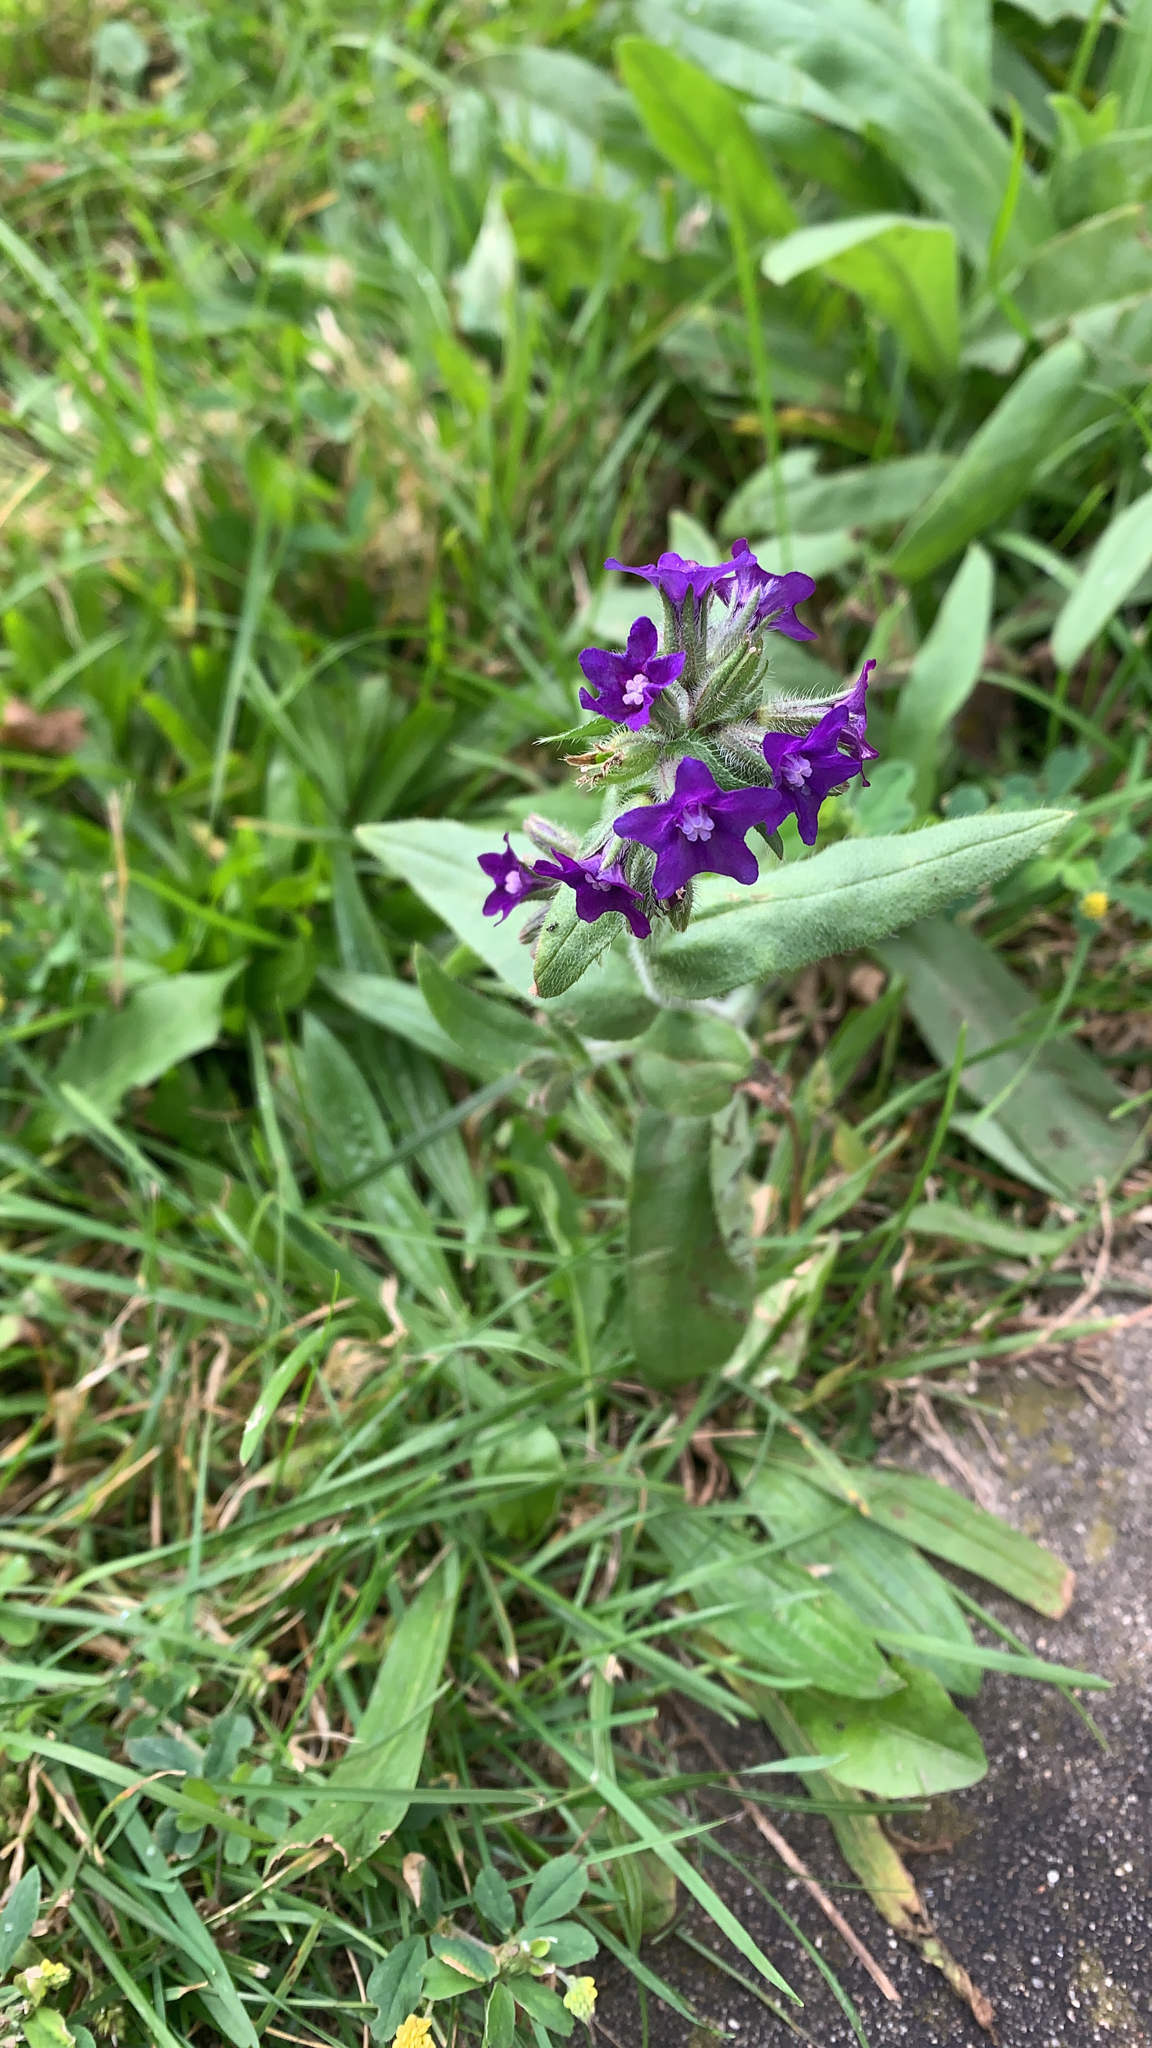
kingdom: Plantae
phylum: Tracheophyta
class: Magnoliopsida
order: Boraginales
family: Boraginaceae
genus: Anchusa
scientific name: Anchusa officinalis
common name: Alkanet
